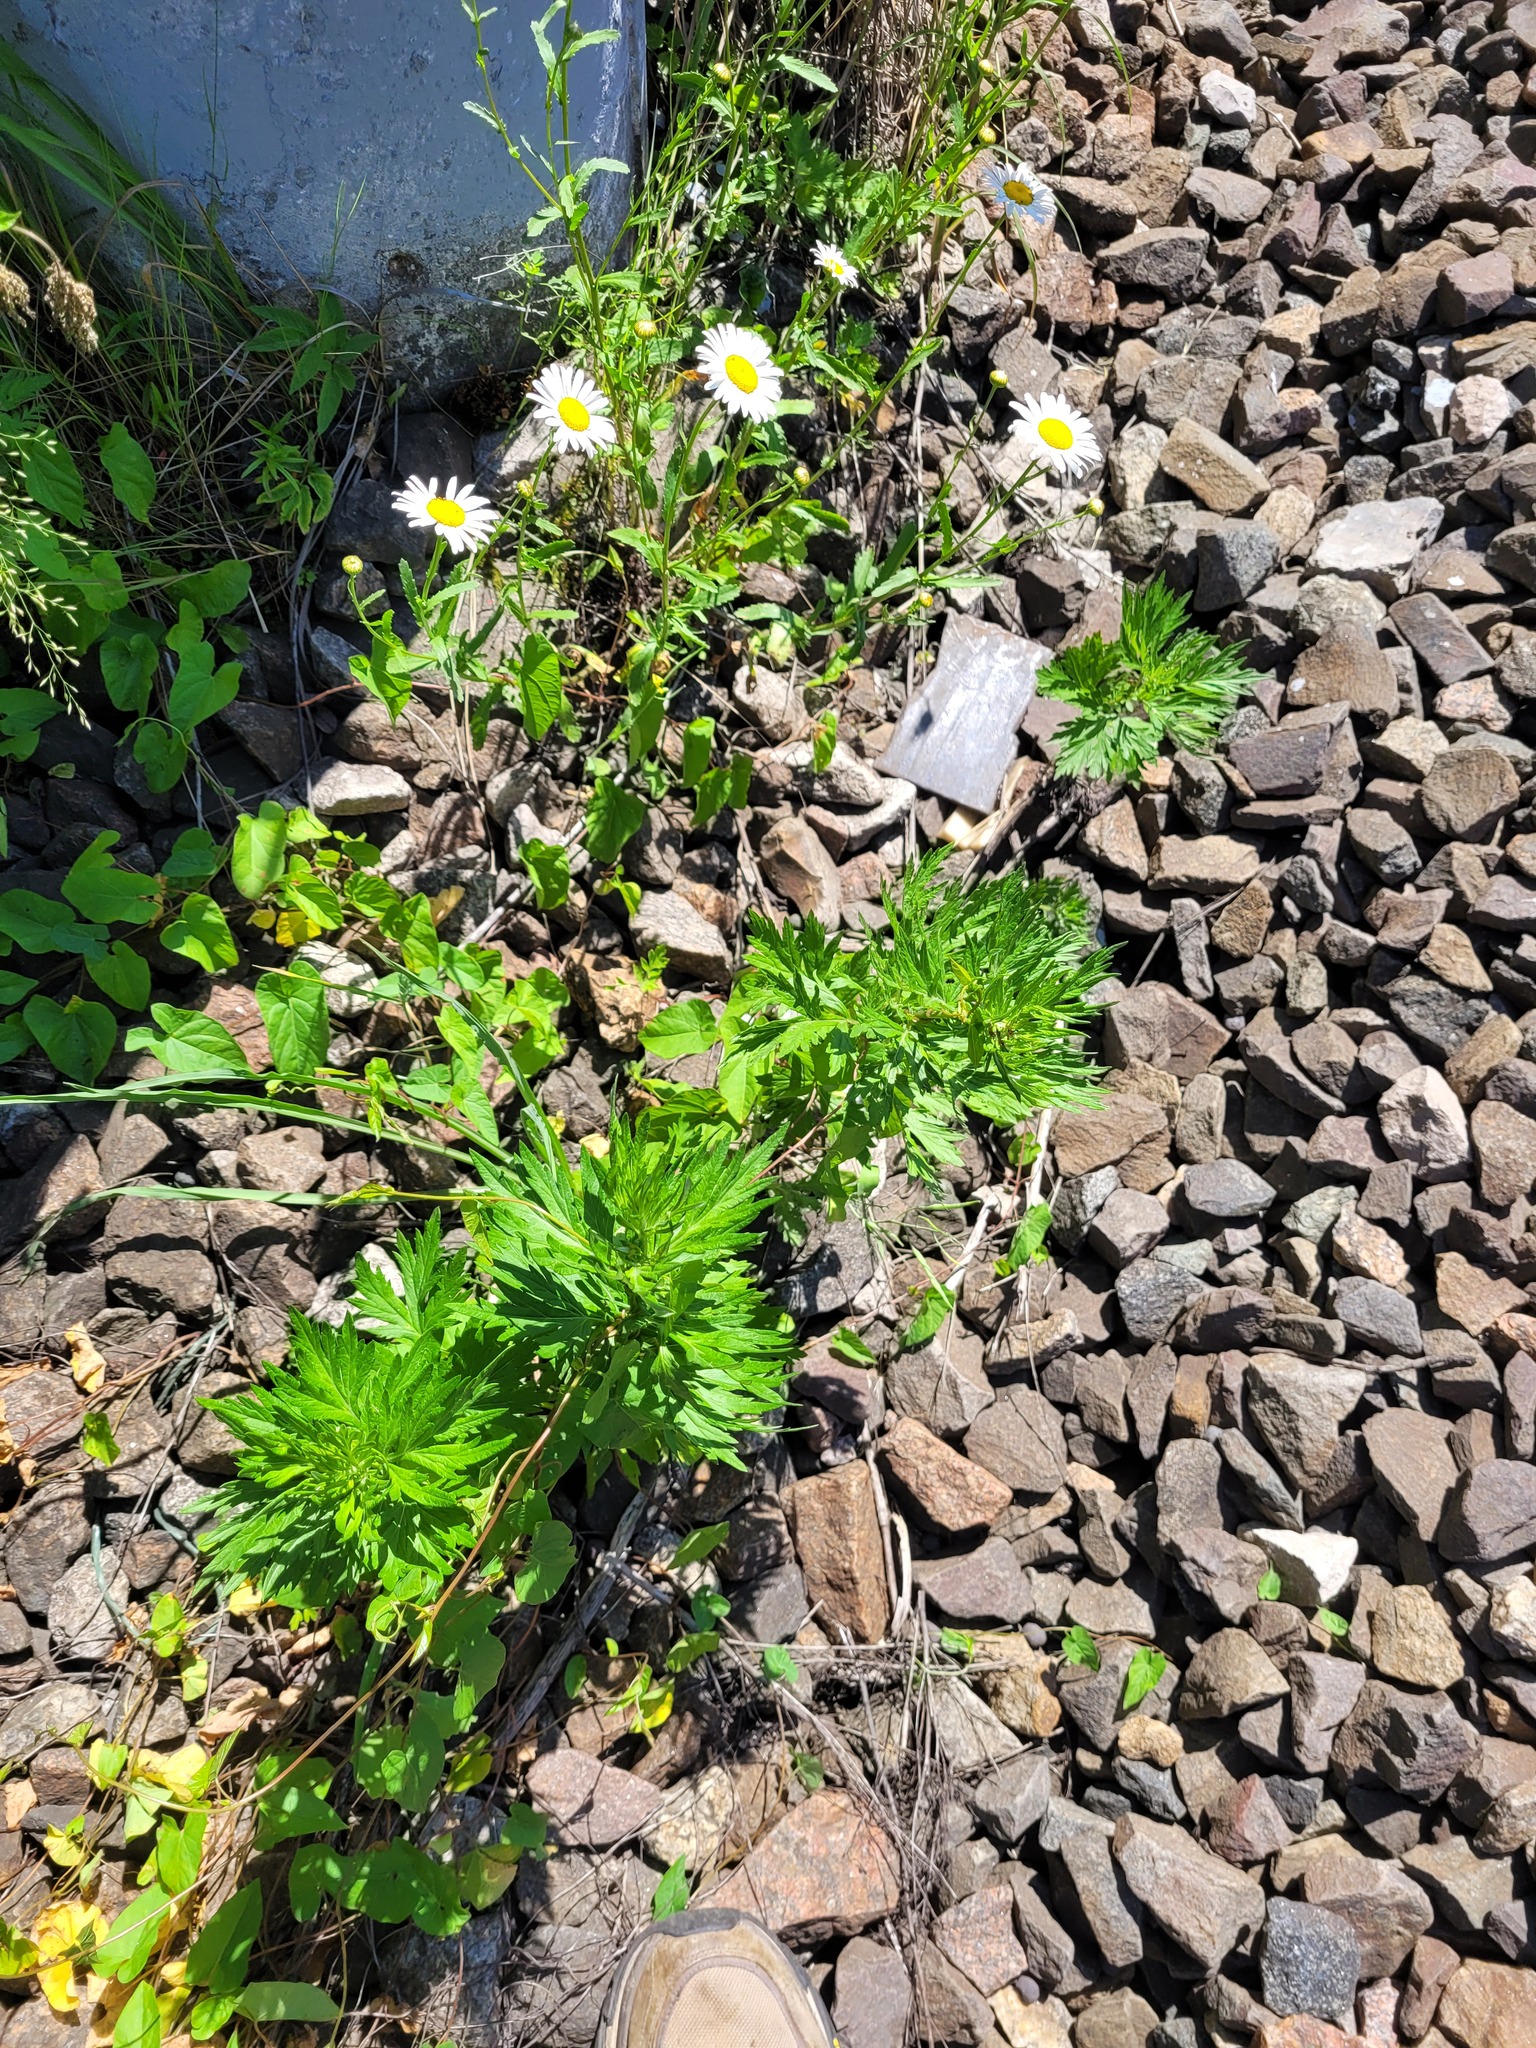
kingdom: Plantae
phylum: Tracheophyta
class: Magnoliopsida
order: Asterales
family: Asteraceae
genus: Artemisia
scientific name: Artemisia vulgaris
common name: Mugwort
